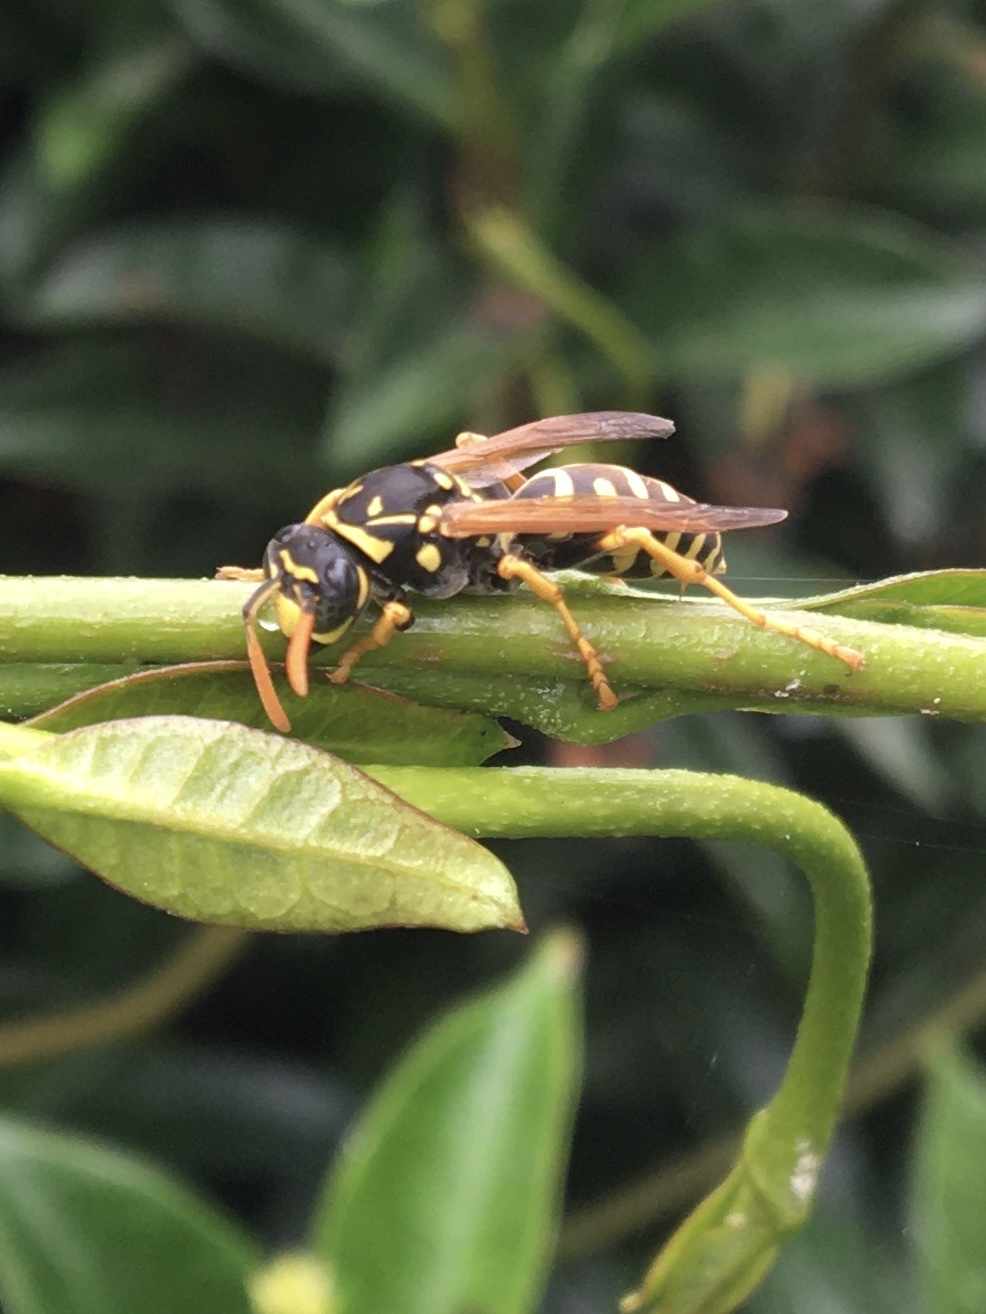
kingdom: Animalia
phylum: Arthropoda
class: Insecta
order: Hymenoptera
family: Eumenidae
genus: Polistes
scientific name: Polistes dominula
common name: Paper wasp
